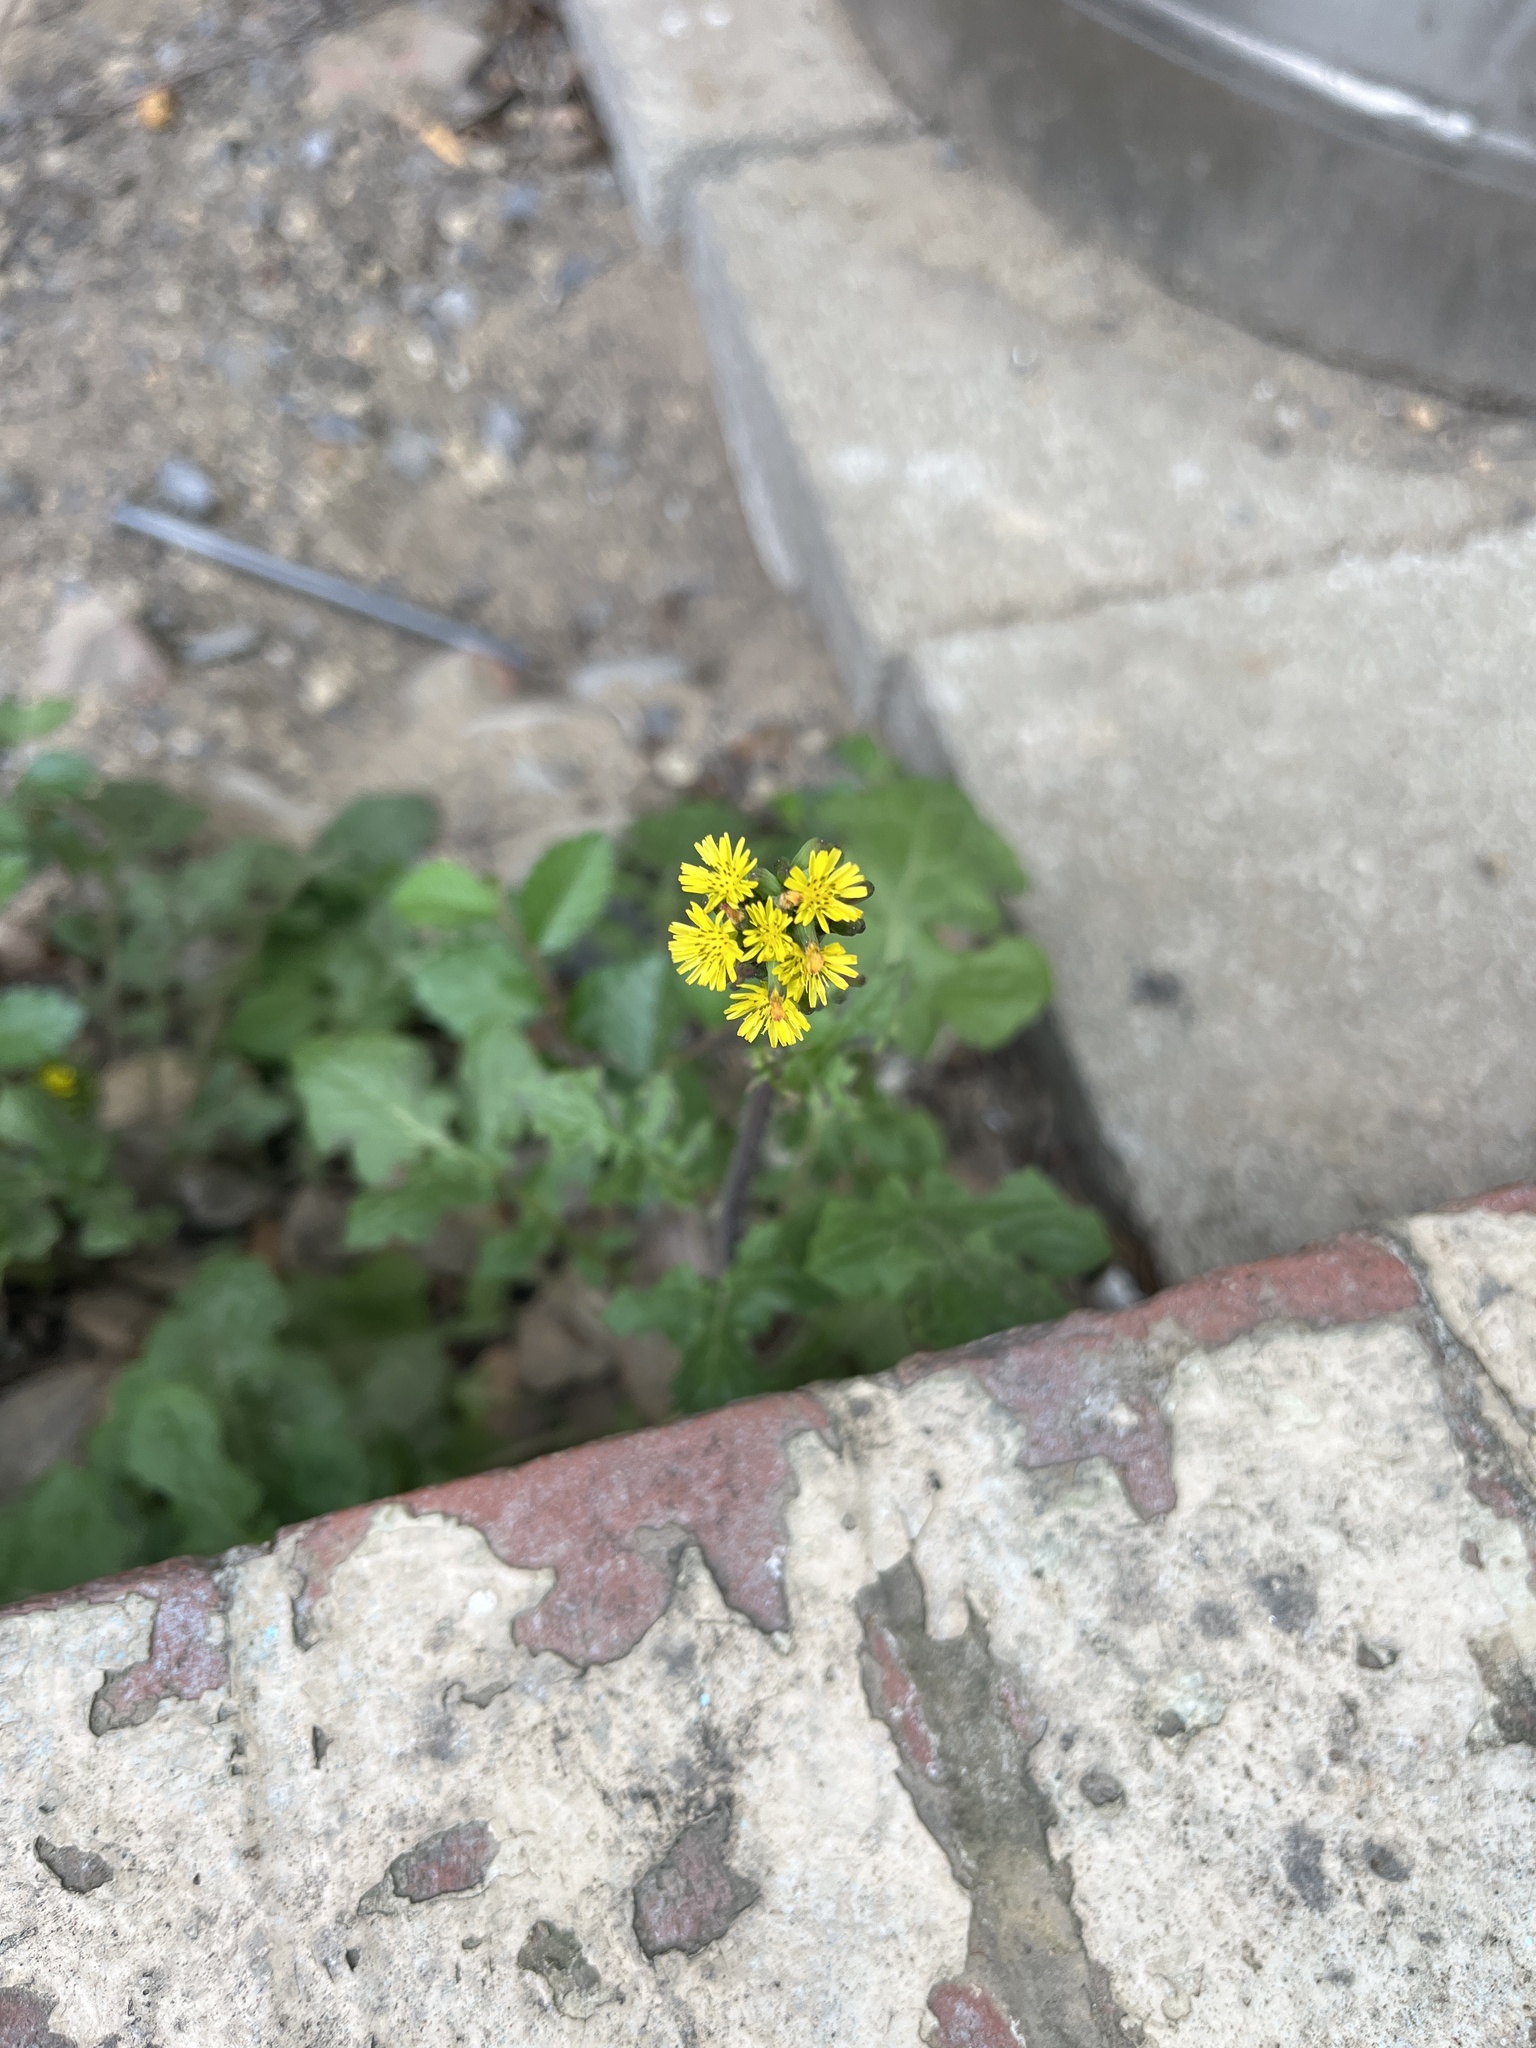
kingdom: Plantae
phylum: Tracheophyta
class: Magnoliopsida
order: Asterales
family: Asteraceae
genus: Youngia
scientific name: Youngia japonica
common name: Oriental false hawksbeard
